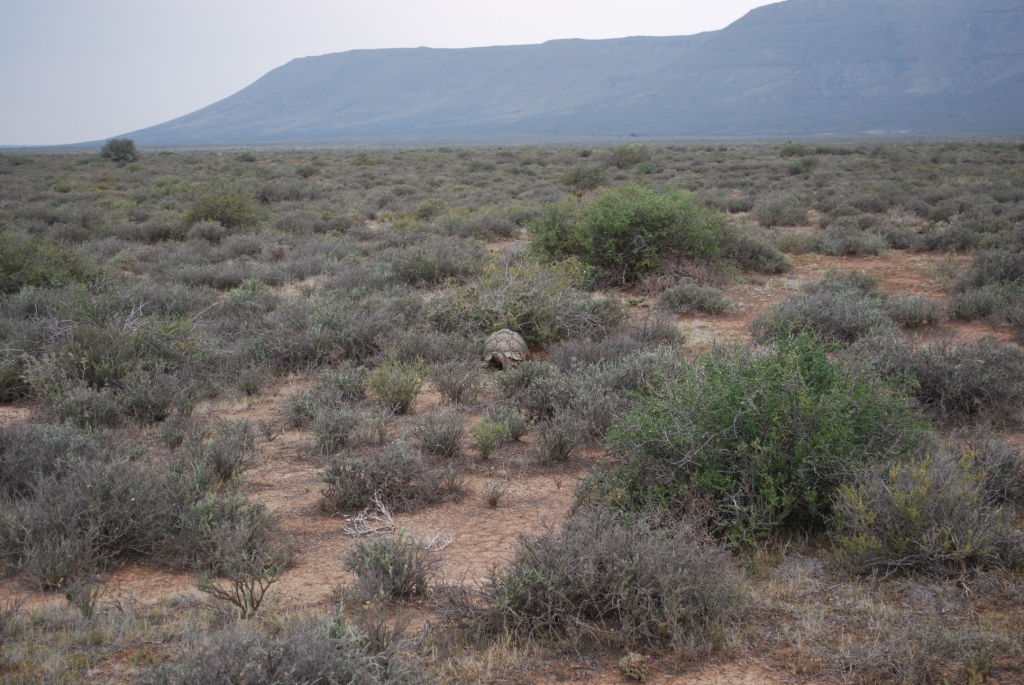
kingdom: Animalia
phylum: Chordata
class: Testudines
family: Testudinidae
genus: Stigmochelys
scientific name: Stigmochelys pardalis
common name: Leopard tortoise
